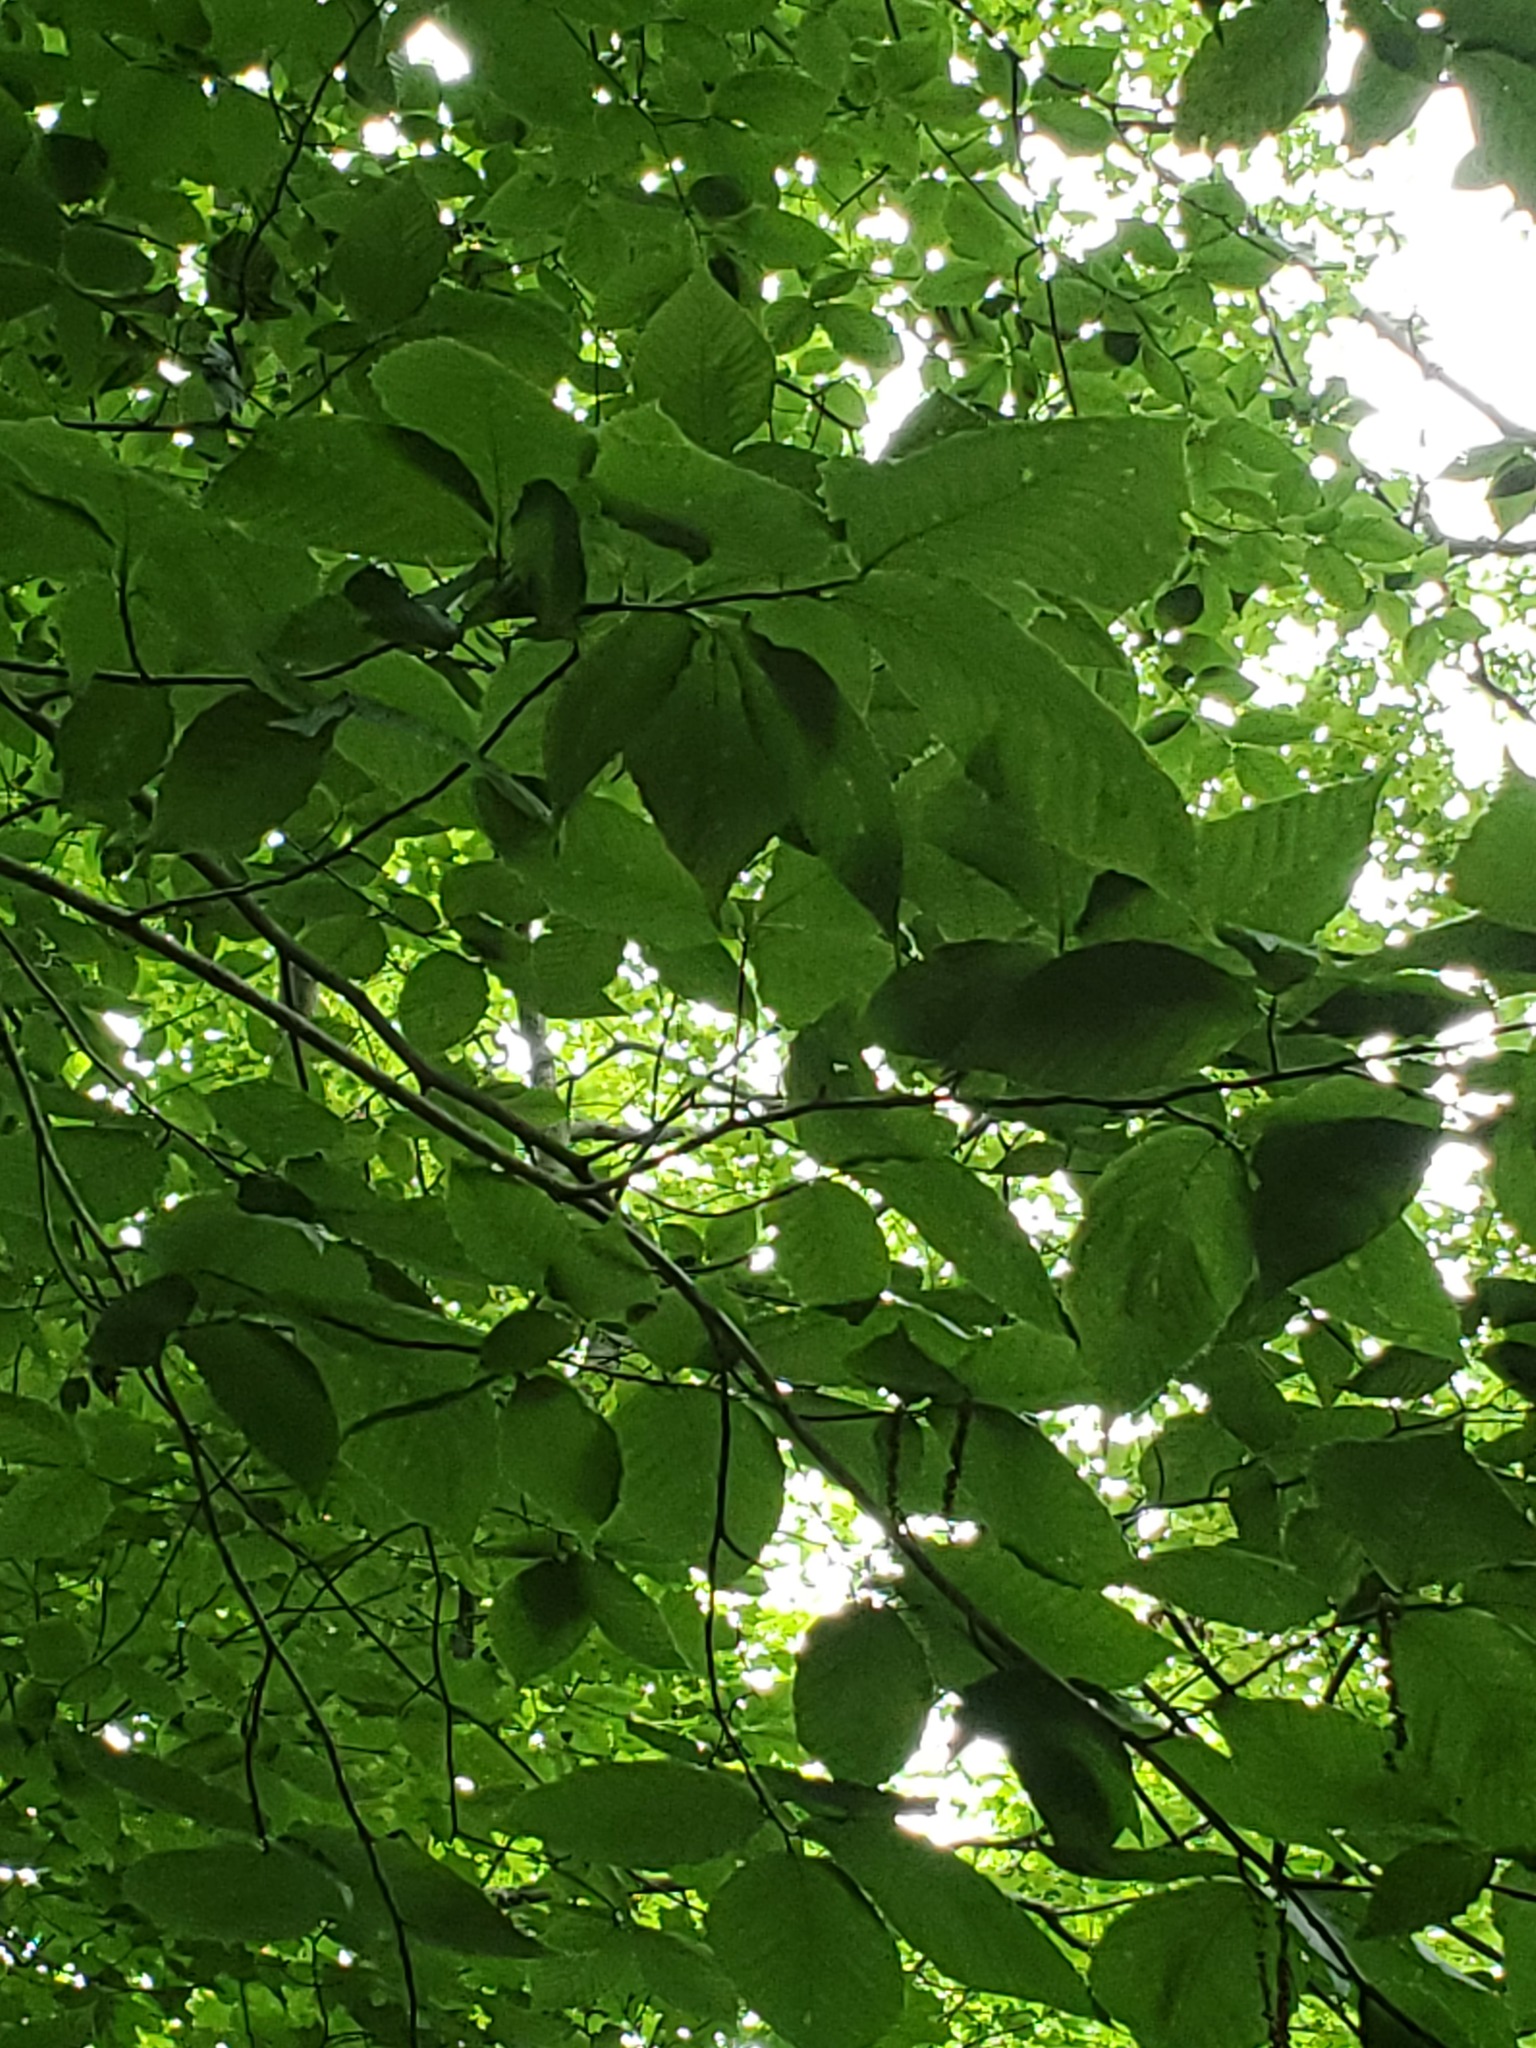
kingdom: Animalia
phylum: Nematoda
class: Chromadorea
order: Rhabditida
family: Anguinidae
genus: Litylenchus
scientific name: Litylenchus crenatae
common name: Beech leaf disease
